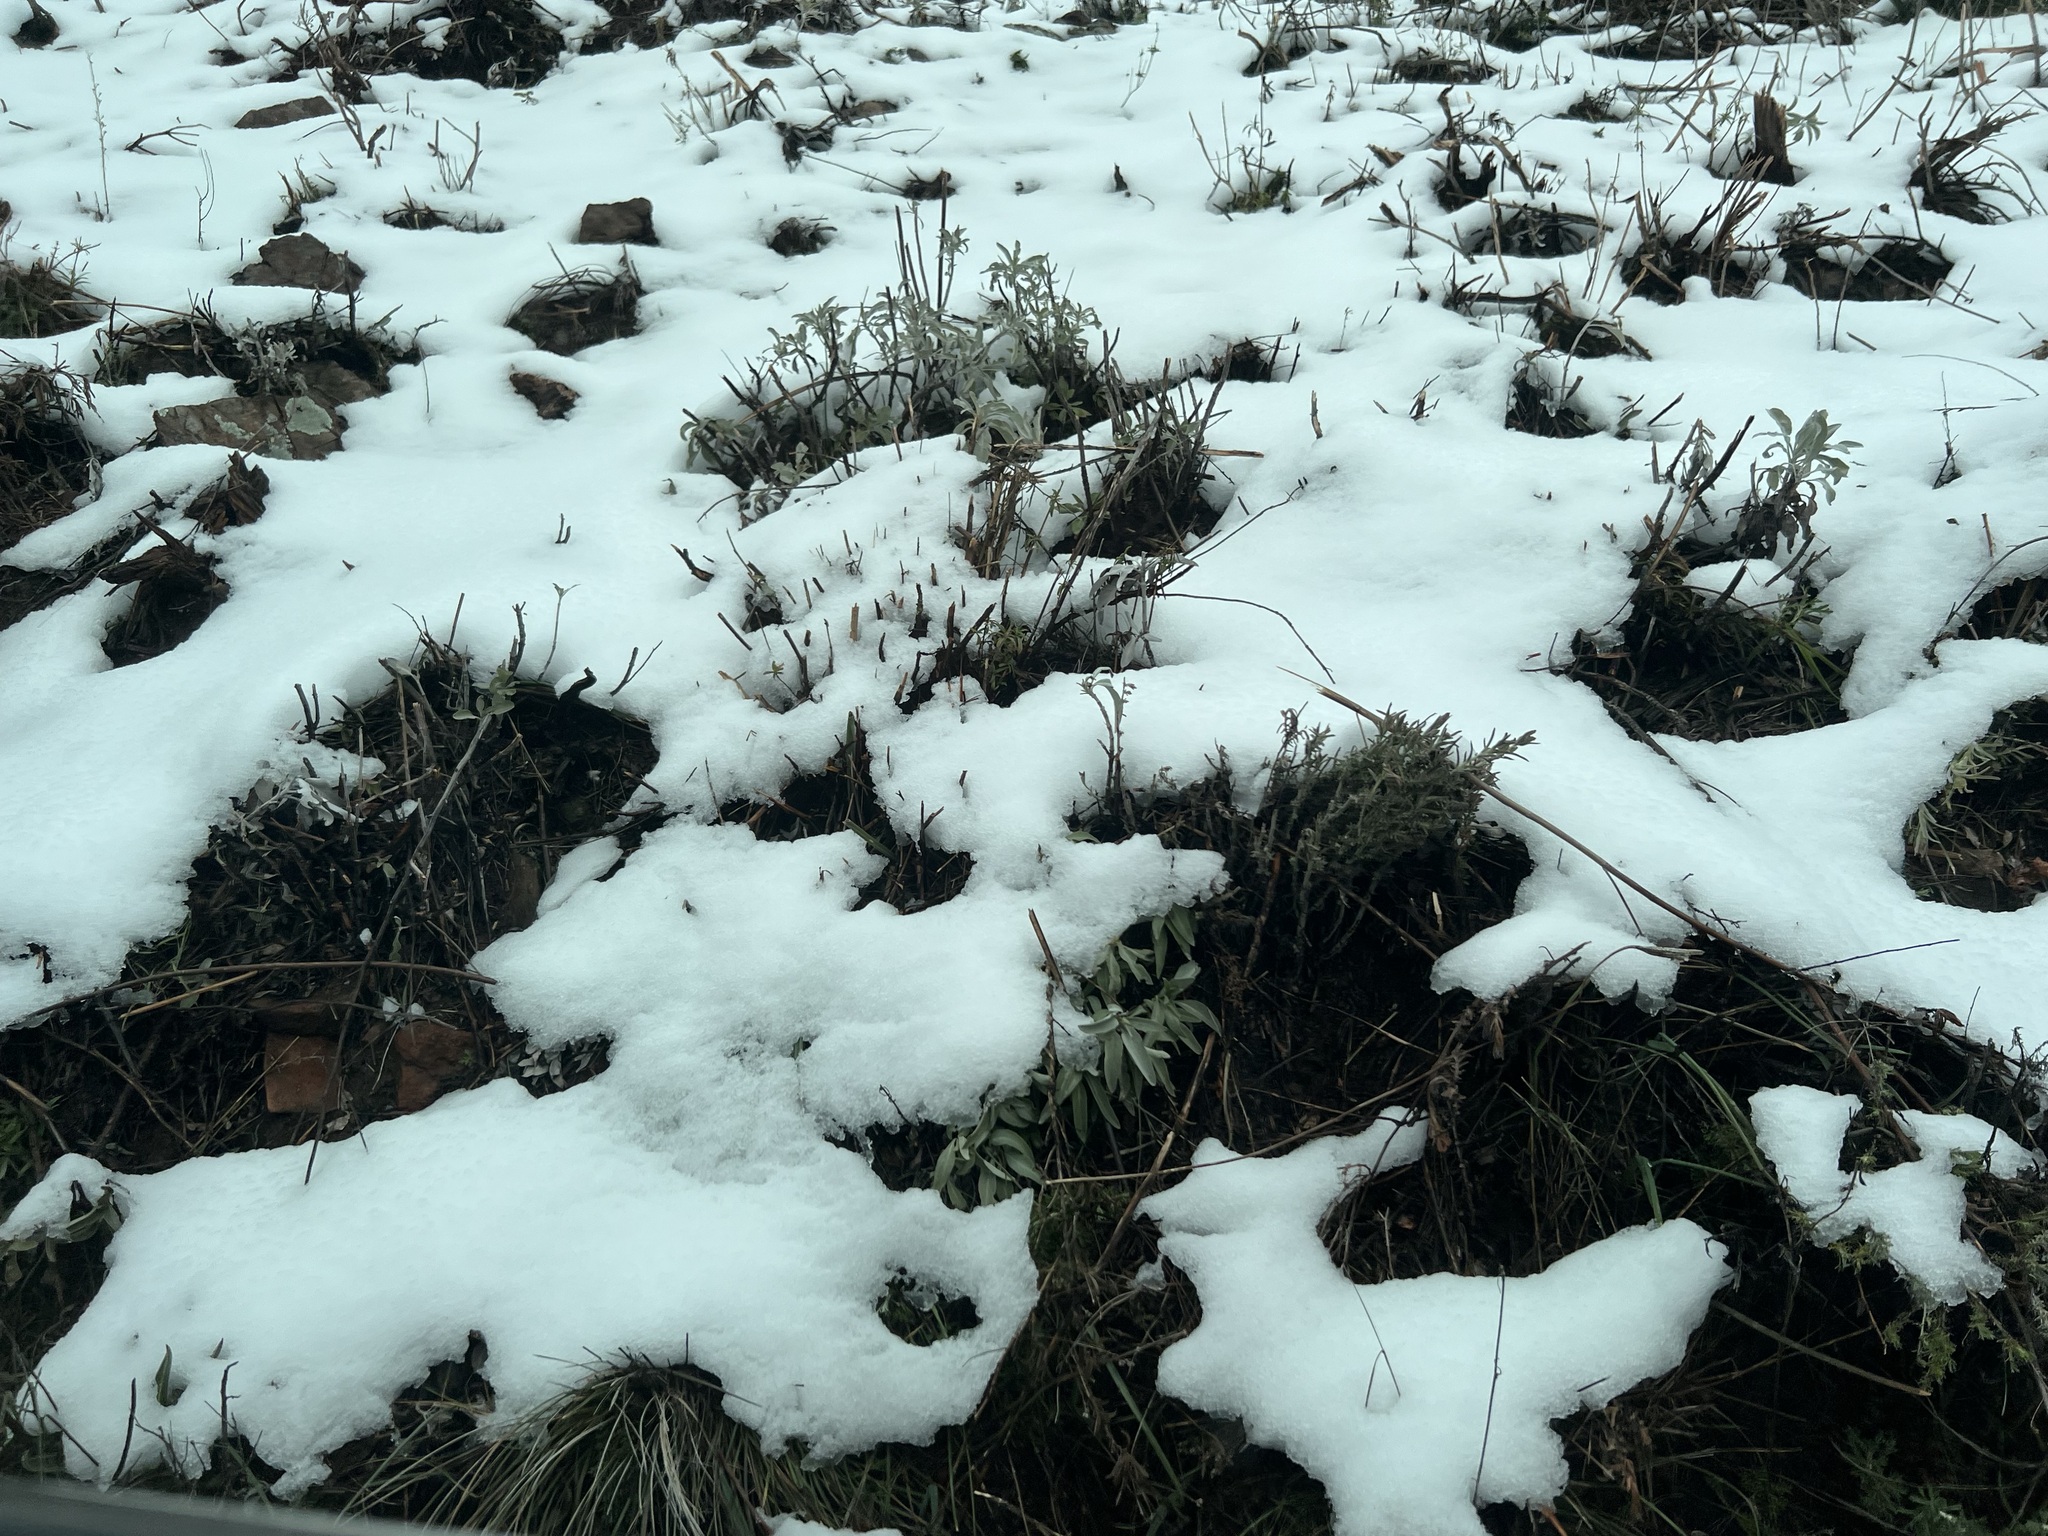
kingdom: Plantae
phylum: Tracheophyta
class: Magnoliopsida
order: Lamiales
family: Lamiaceae
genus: Salvia
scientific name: Salvia apiana
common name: White sage
